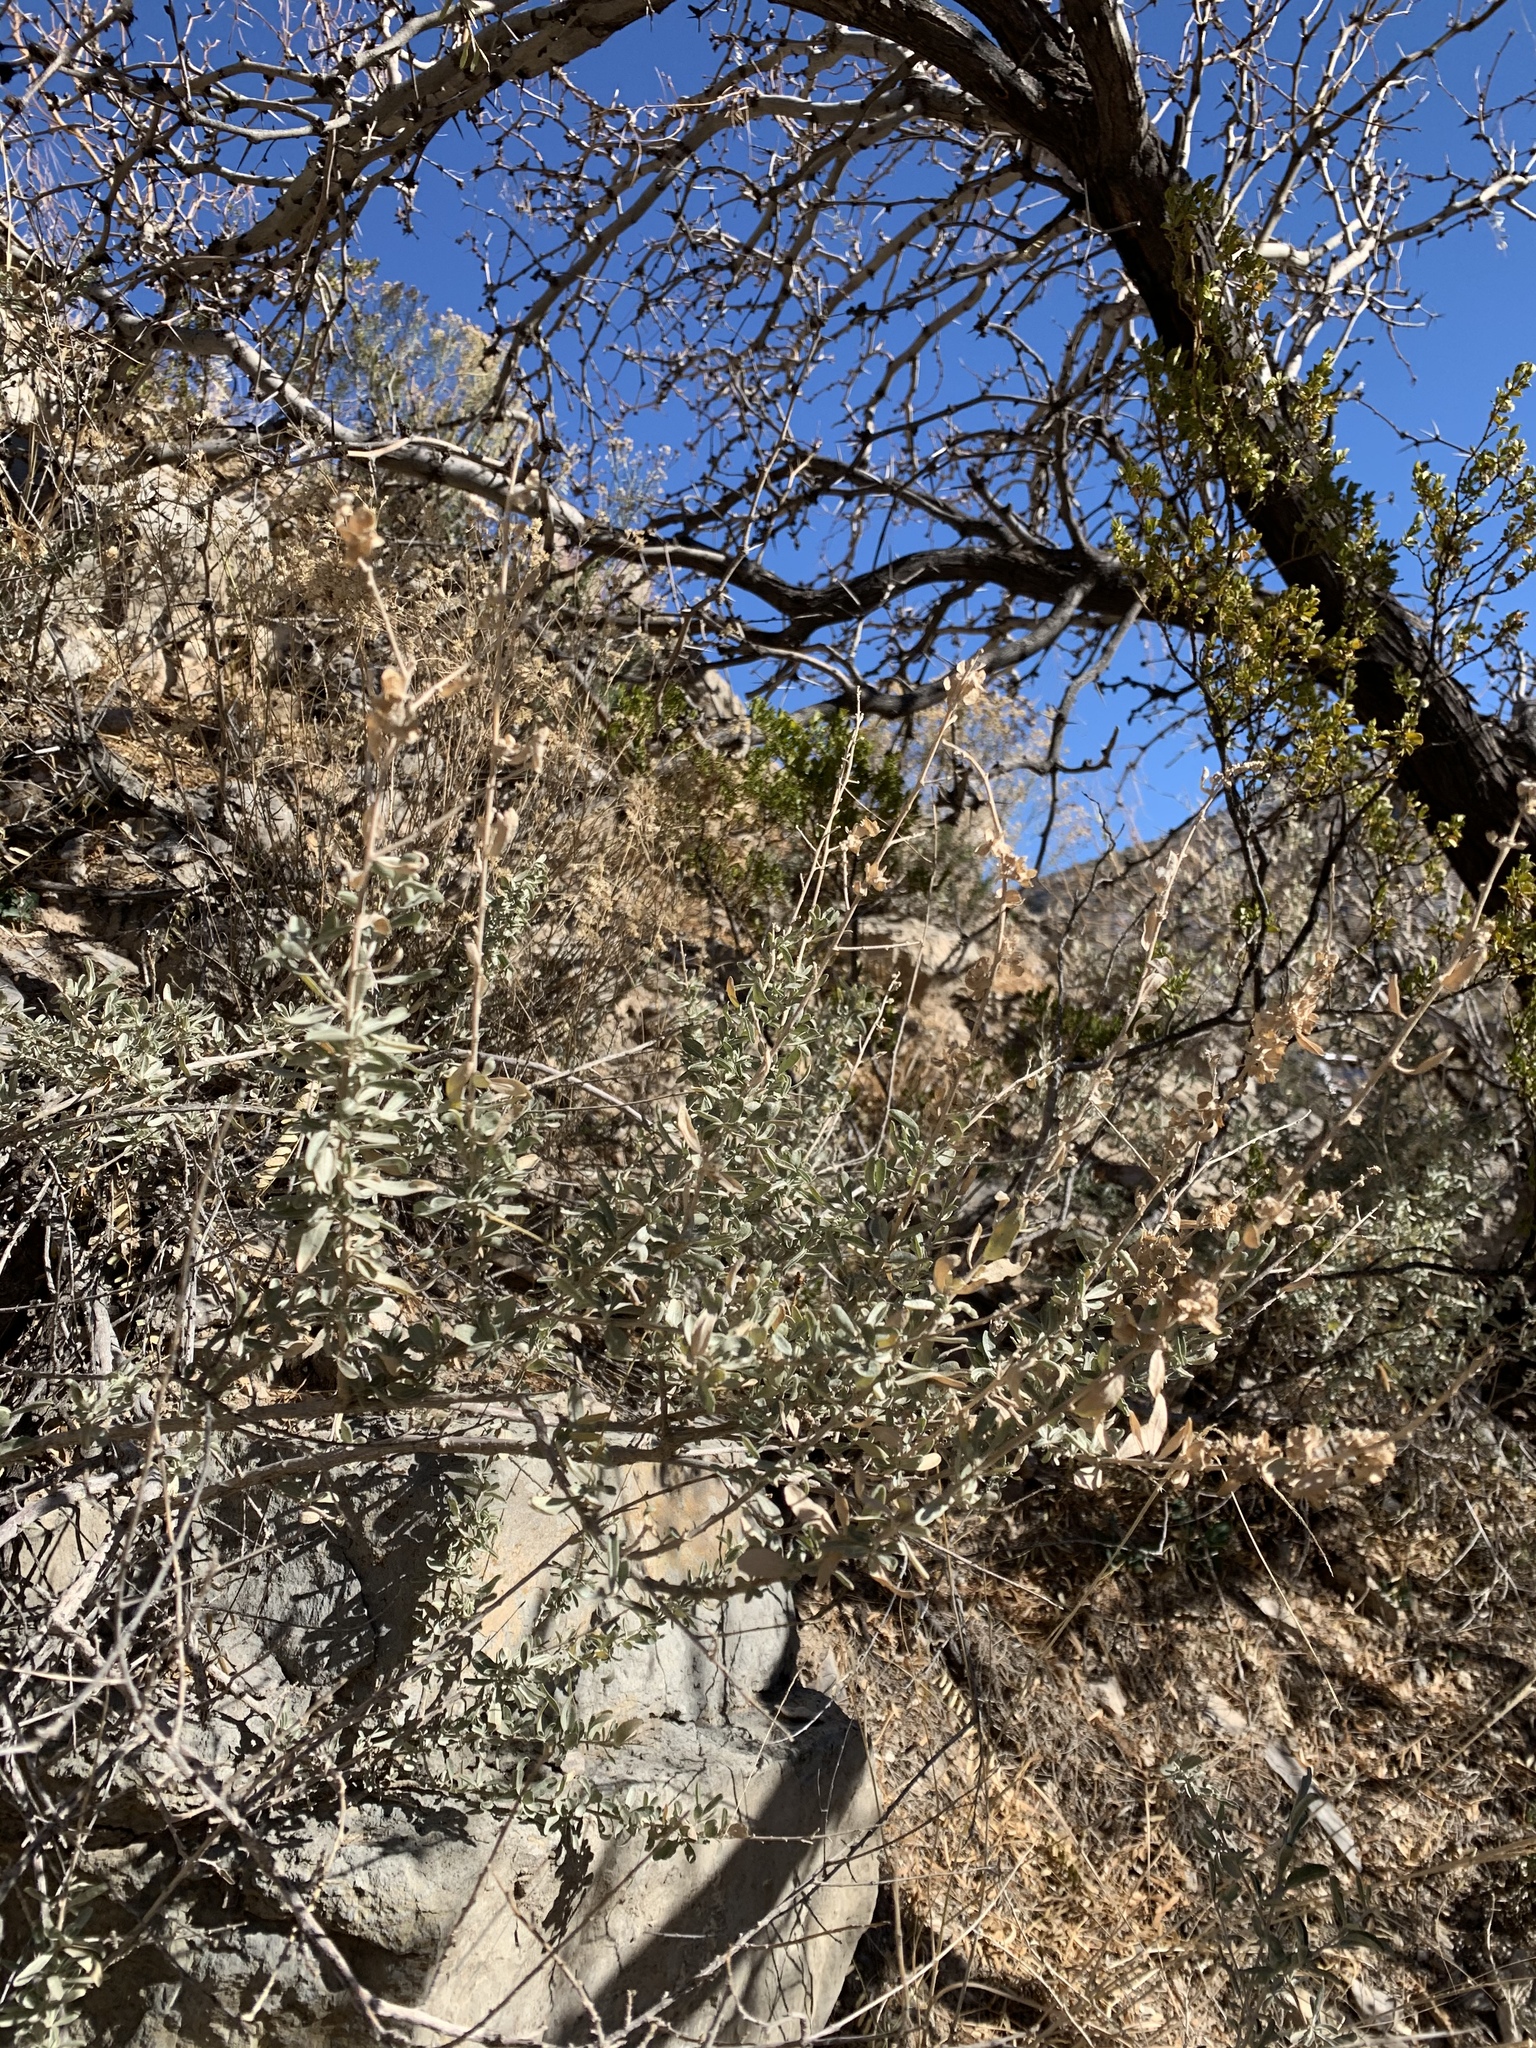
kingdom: Plantae
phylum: Tracheophyta
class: Magnoliopsida
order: Caryophyllales
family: Amaranthaceae
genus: Atriplex
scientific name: Atriplex canescens
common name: Four-wing saltbush
